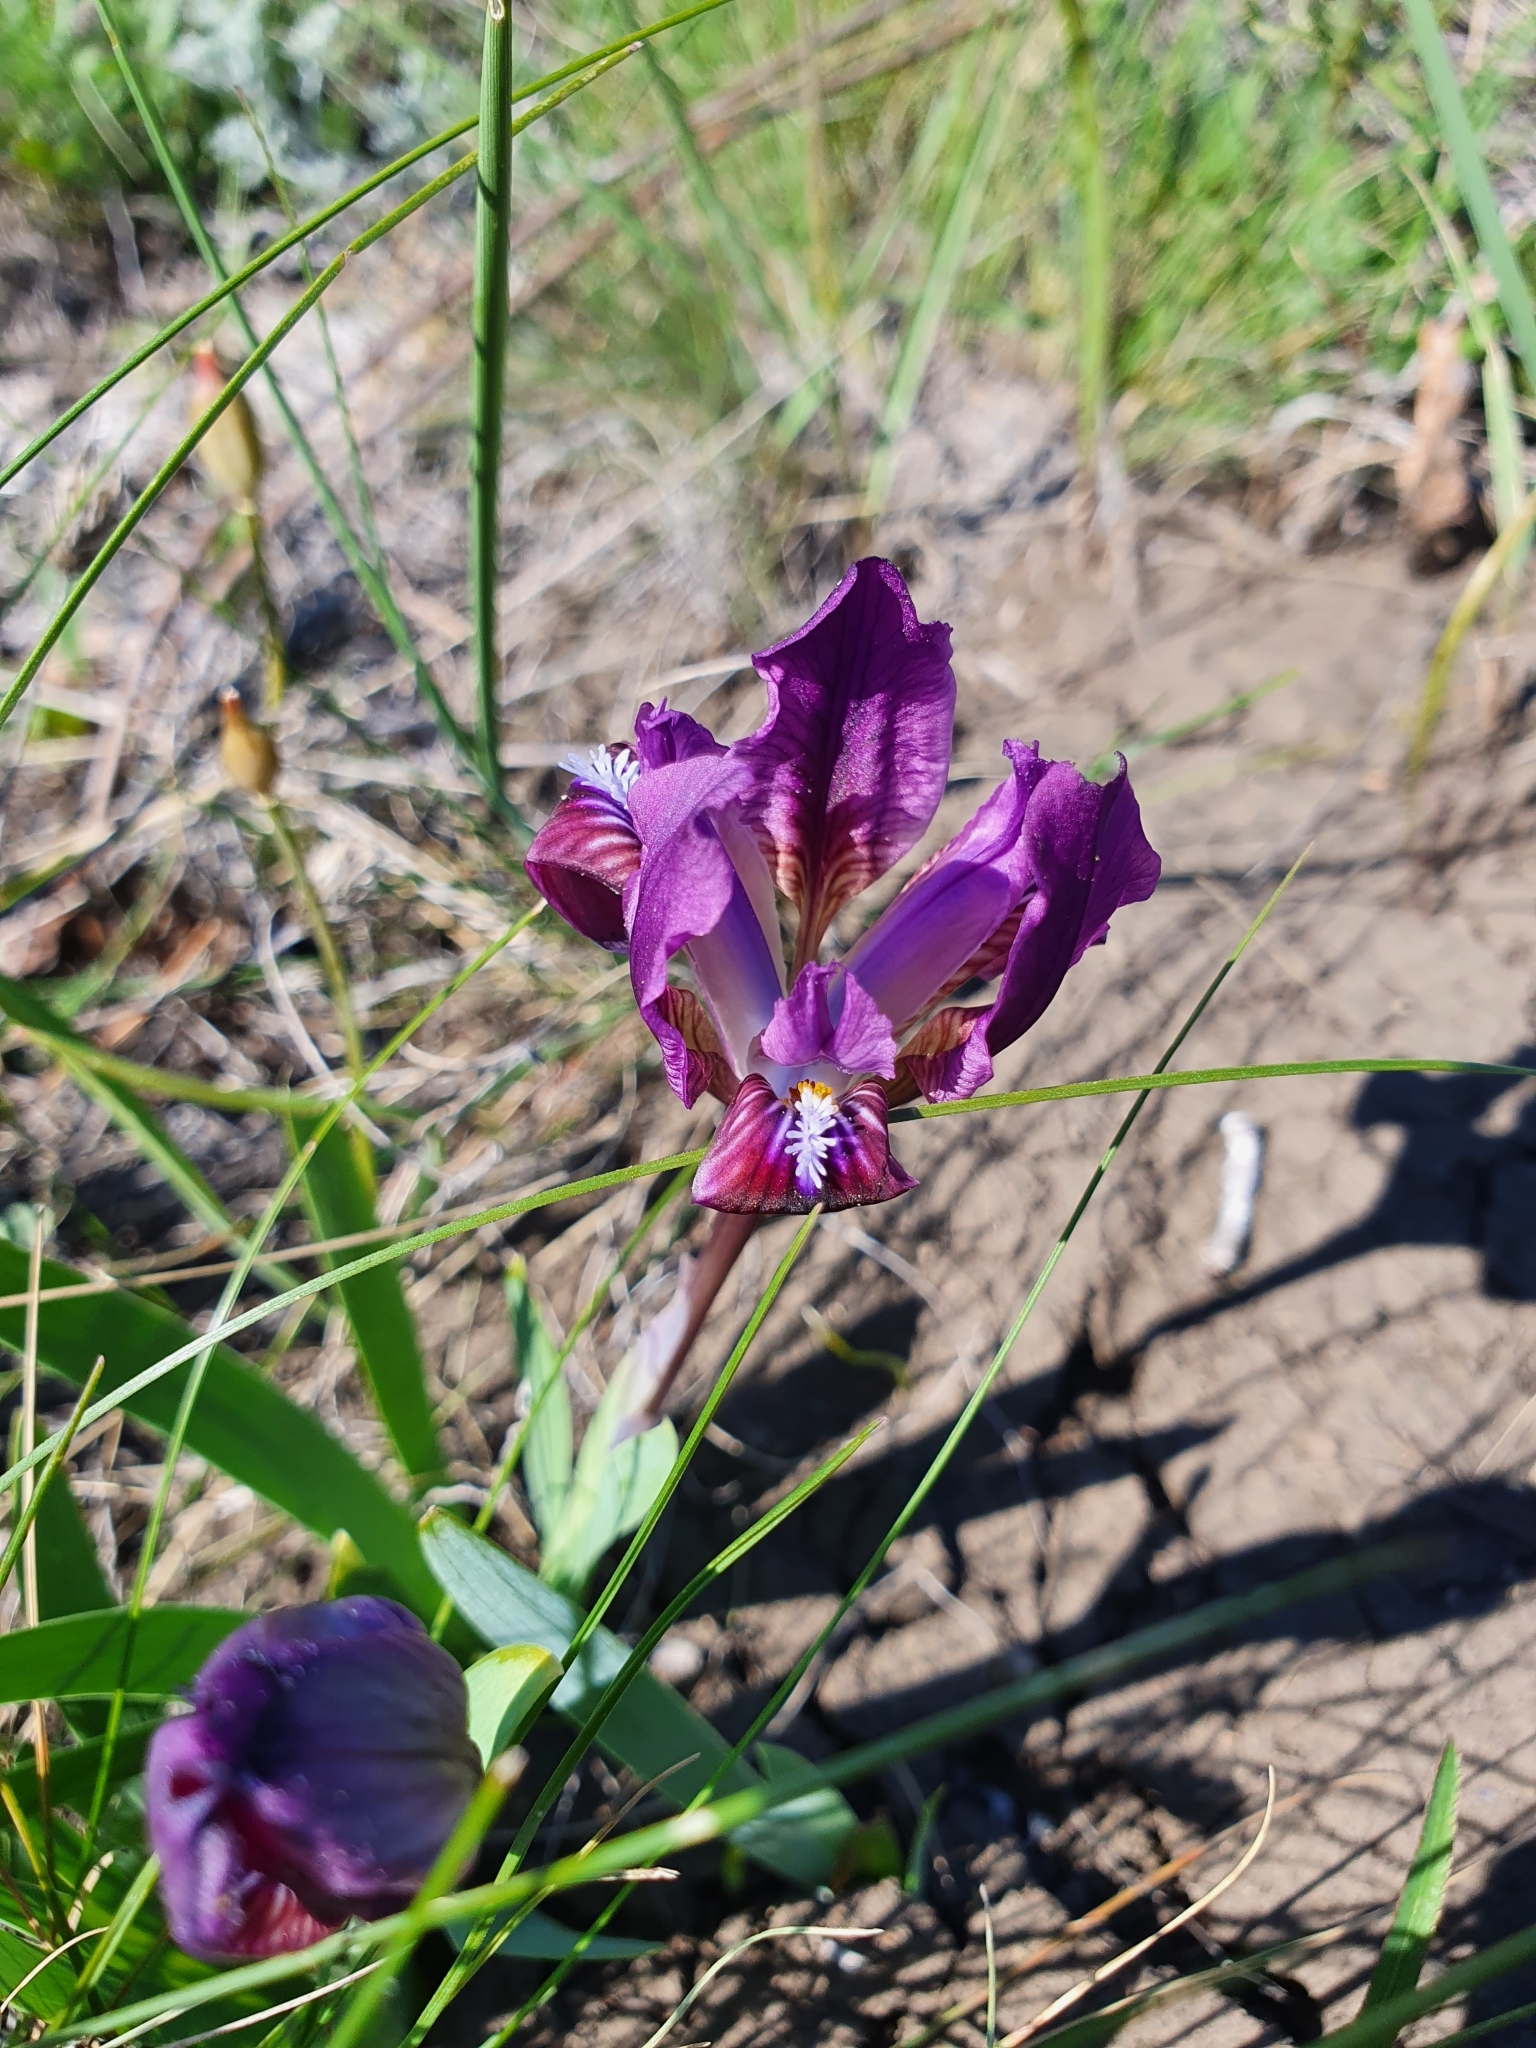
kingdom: Plantae
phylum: Tracheophyta
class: Liliopsida
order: Asparagales
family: Iridaceae
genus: Iris
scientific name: Iris pumila
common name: Dwarf iris
